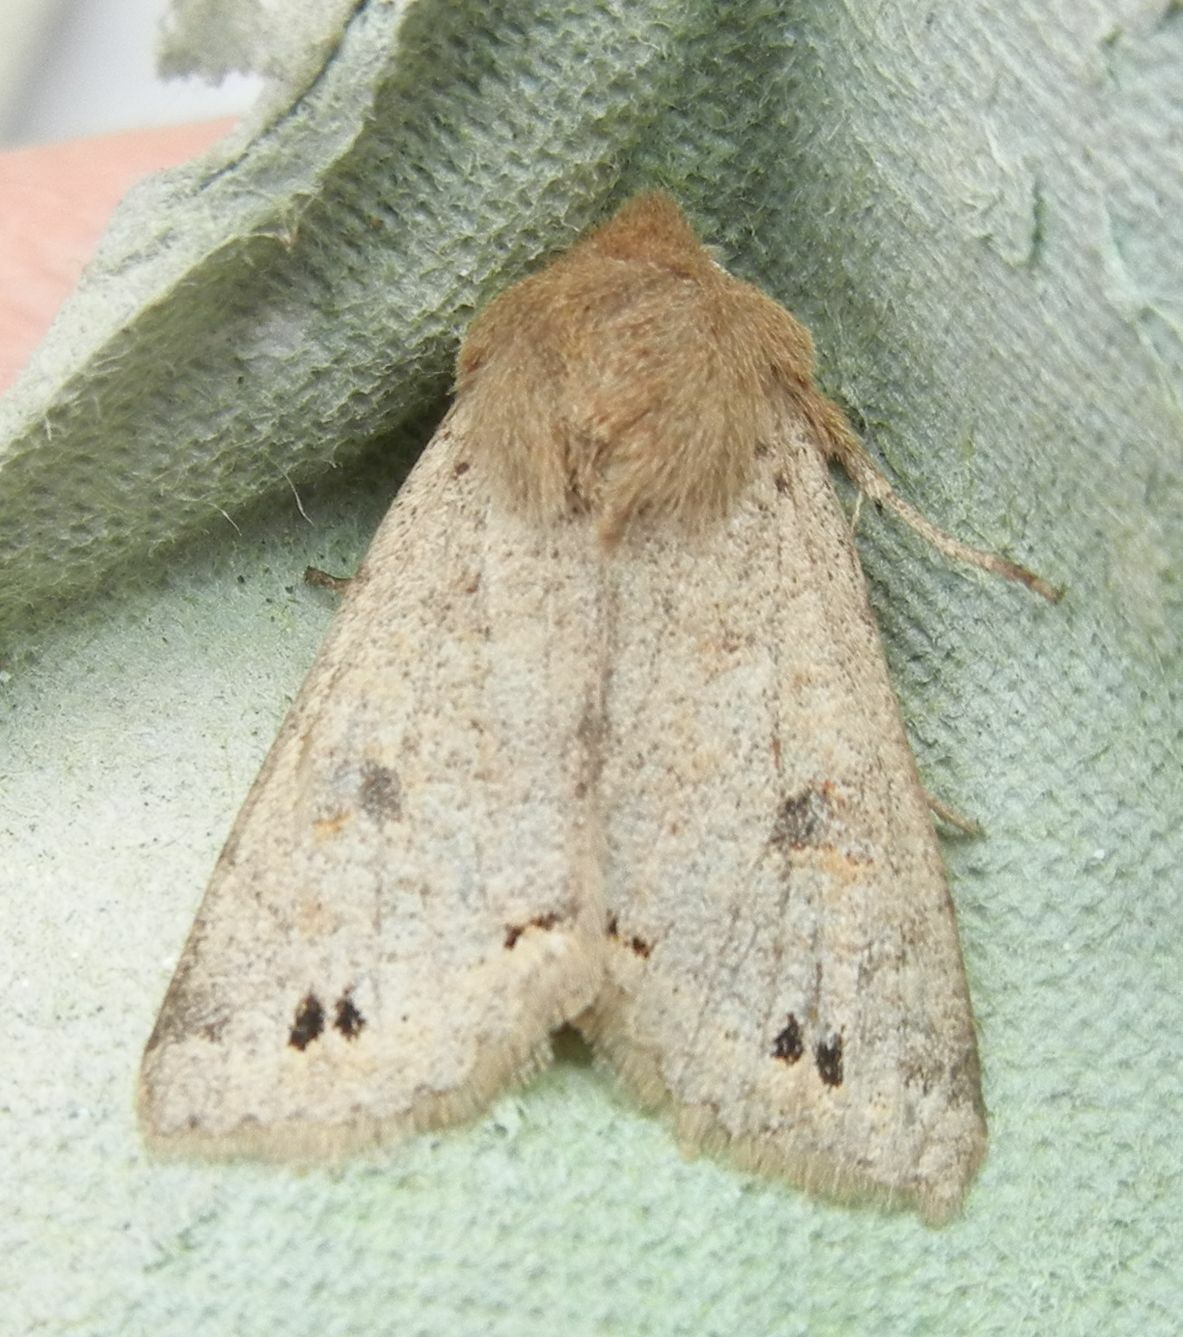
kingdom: Animalia
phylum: Arthropoda
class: Insecta
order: Lepidoptera
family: Noctuidae
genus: Anorthoa
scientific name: Anorthoa munda
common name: Twin-spotted quaker
